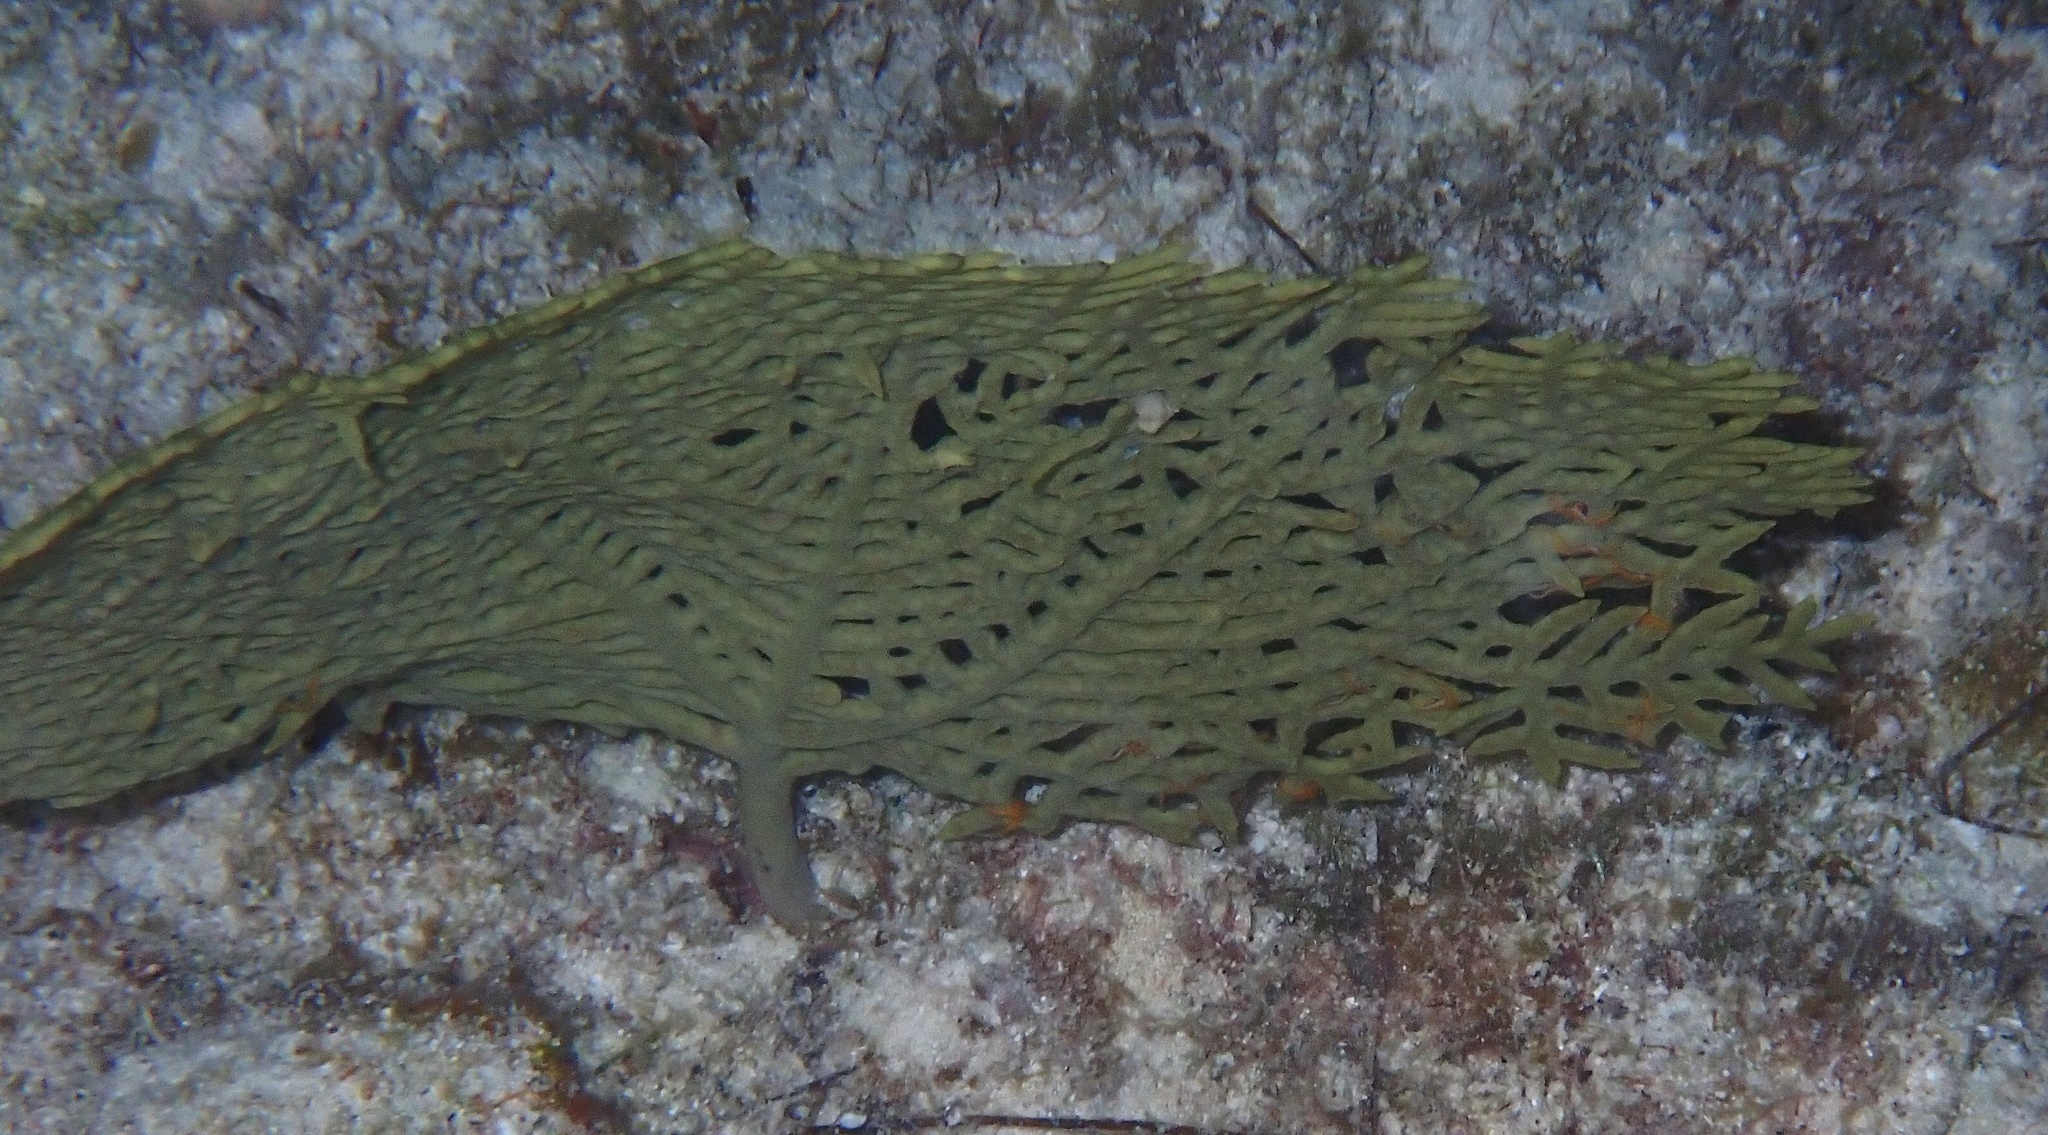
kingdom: Animalia
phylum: Cnidaria
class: Anthozoa
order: Malacalcyonacea
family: Gorgoniidae
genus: Gorgonia
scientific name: Gorgonia ventalina
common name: Common sea fan
